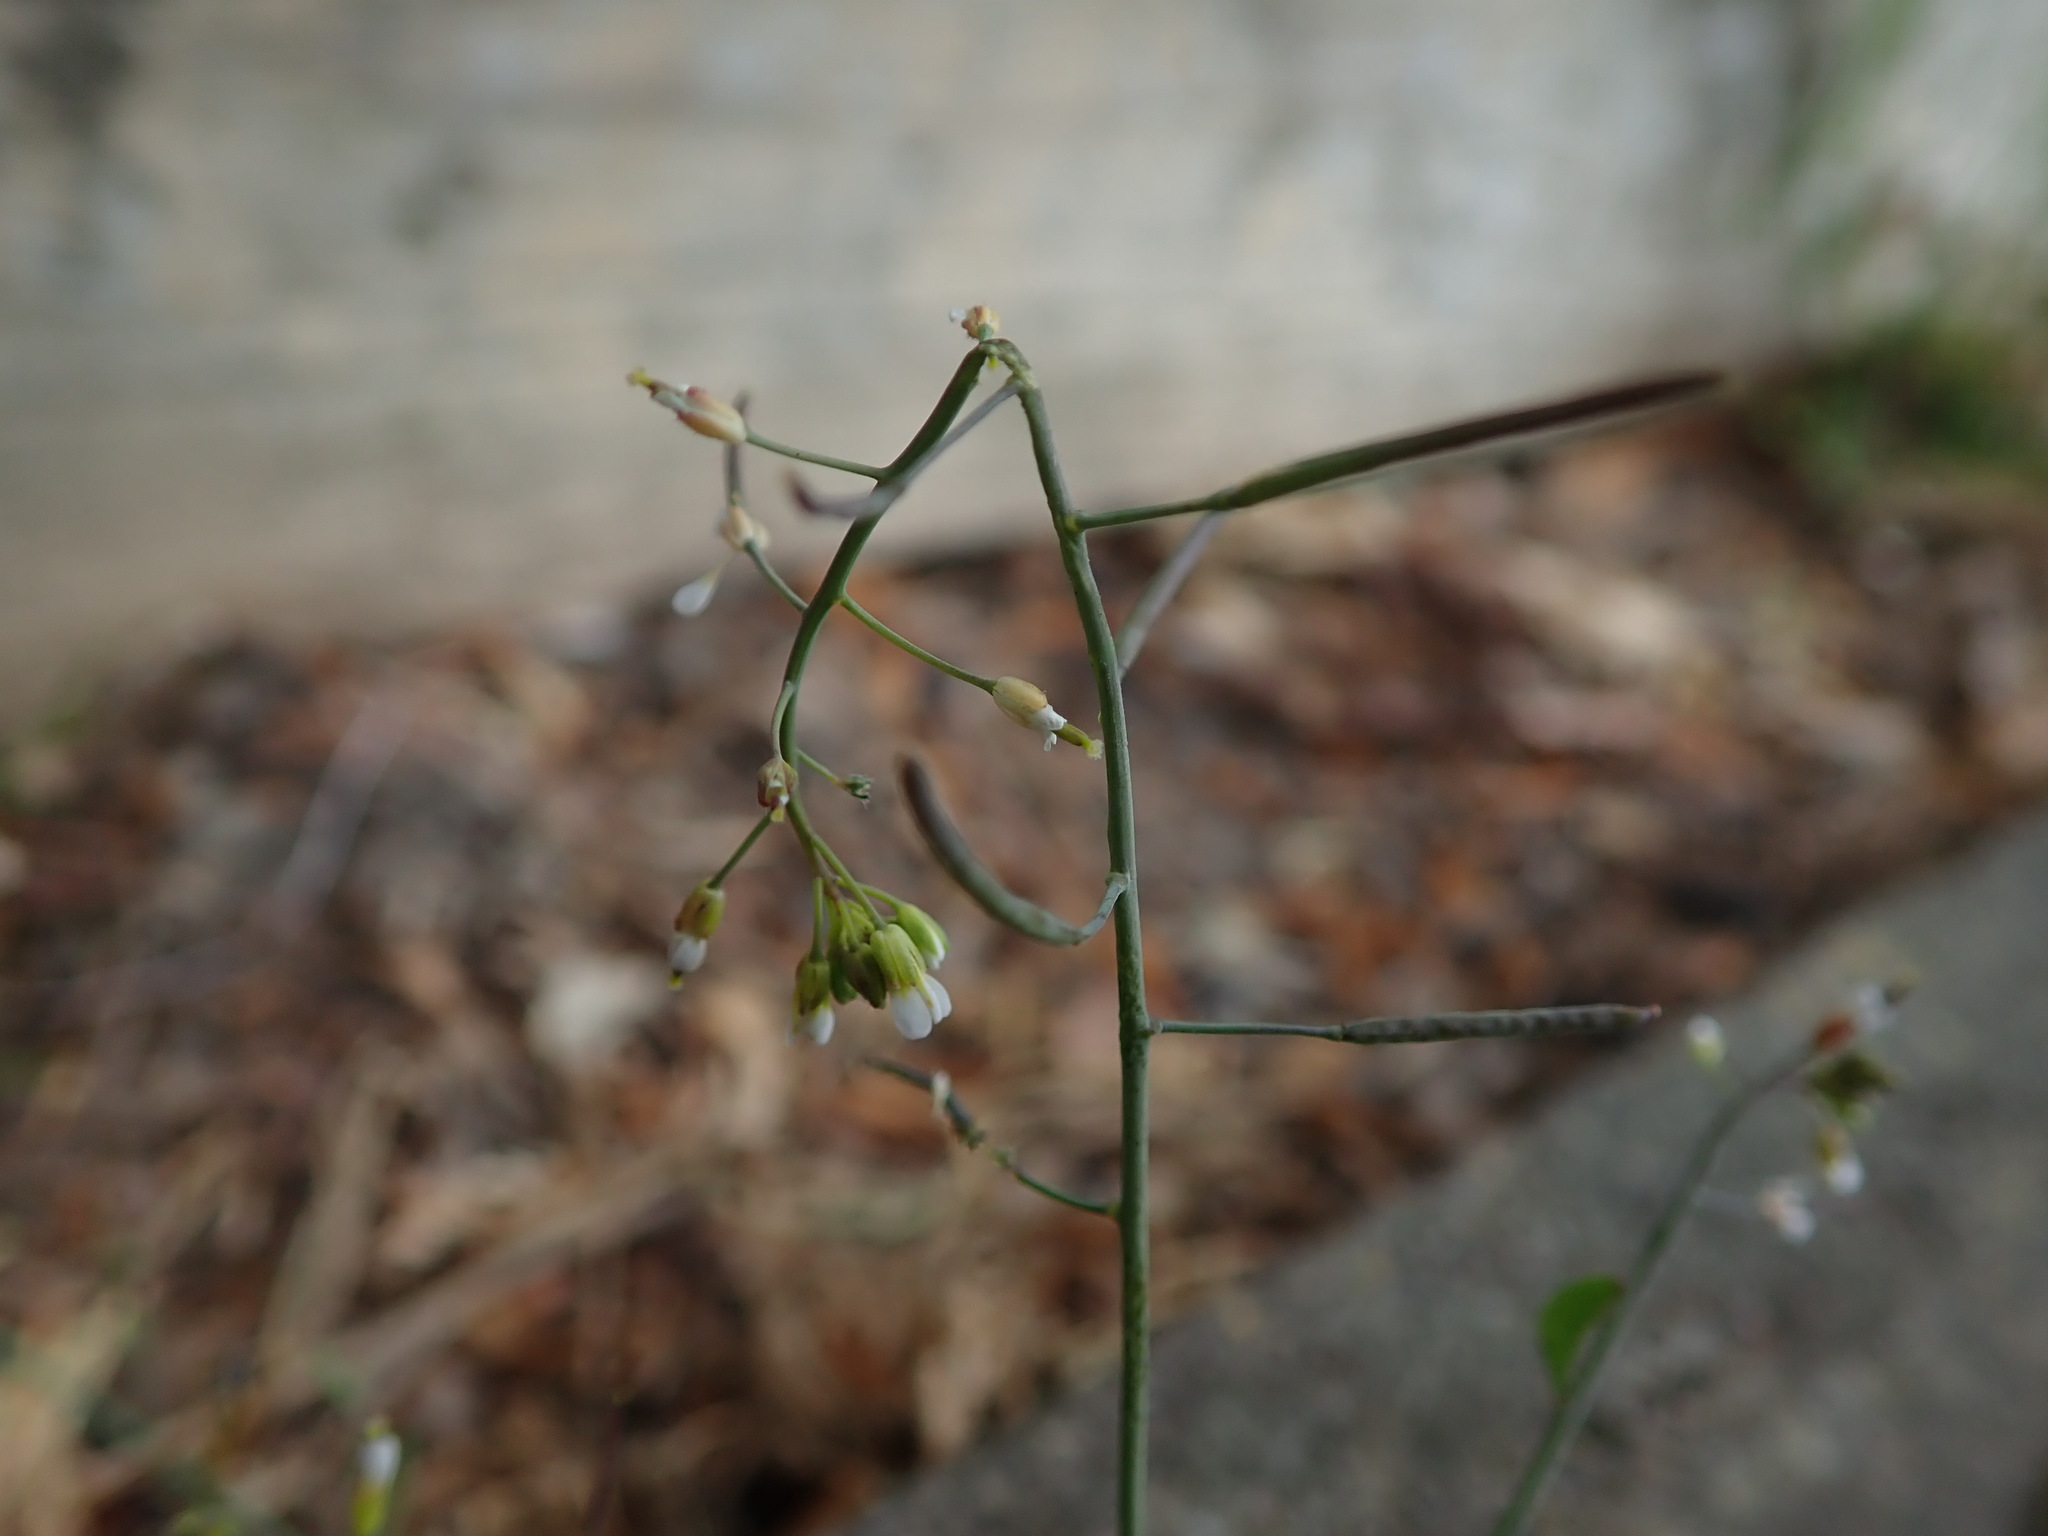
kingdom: Plantae
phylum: Tracheophyta
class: Magnoliopsida
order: Brassicales
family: Brassicaceae
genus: Arabidopsis
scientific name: Arabidopsis thaliana
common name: Thale cress
